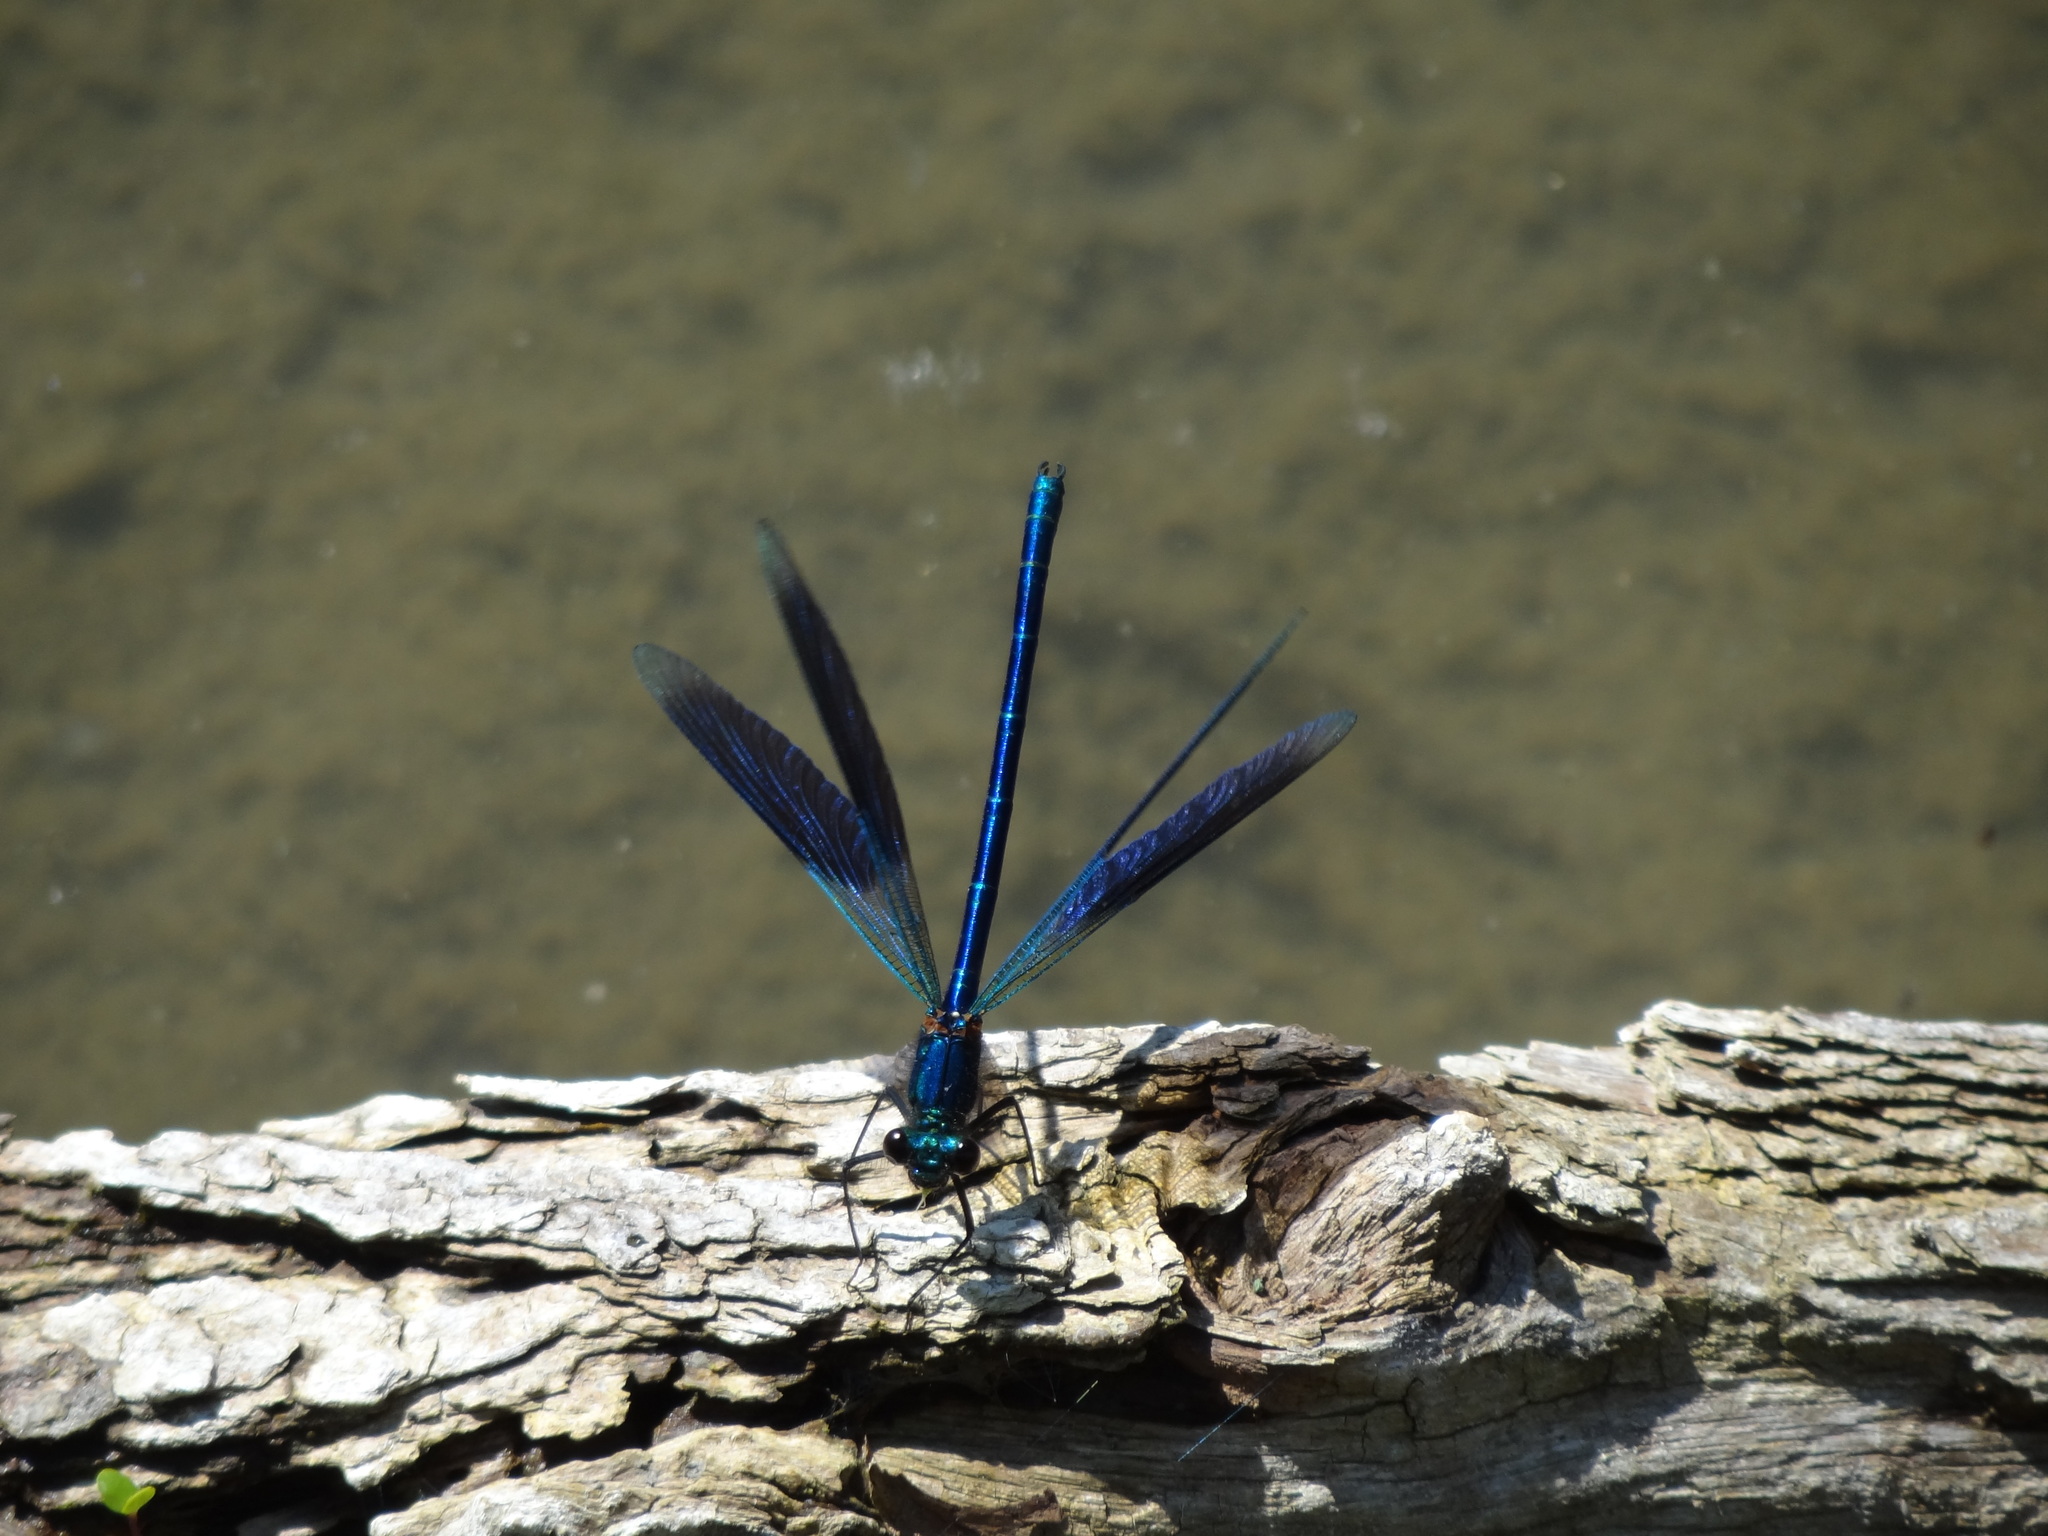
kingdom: Animalia
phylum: Arthropoda
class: Insecta
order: Odonata
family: Calopterygidae
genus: Calopteryx
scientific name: Calopteryx splendens
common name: Banded demoiselle
